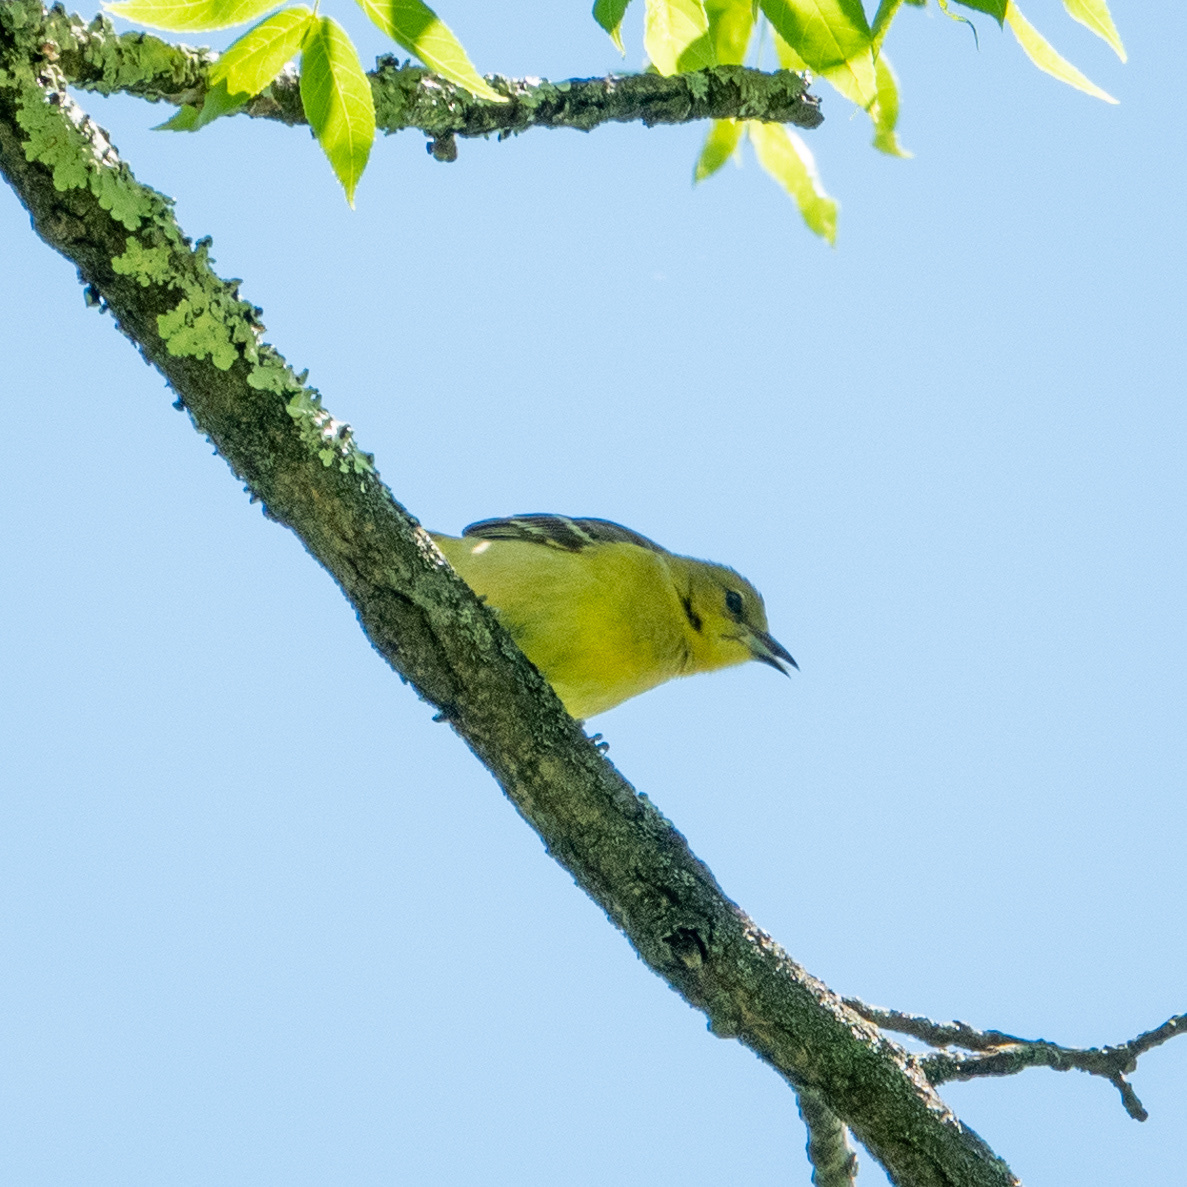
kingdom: Animalia
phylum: Chordata
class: Aves
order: Passeriformes
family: Icteridae
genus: Icterus
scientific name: Icterus spurius
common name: Orchard oriole
